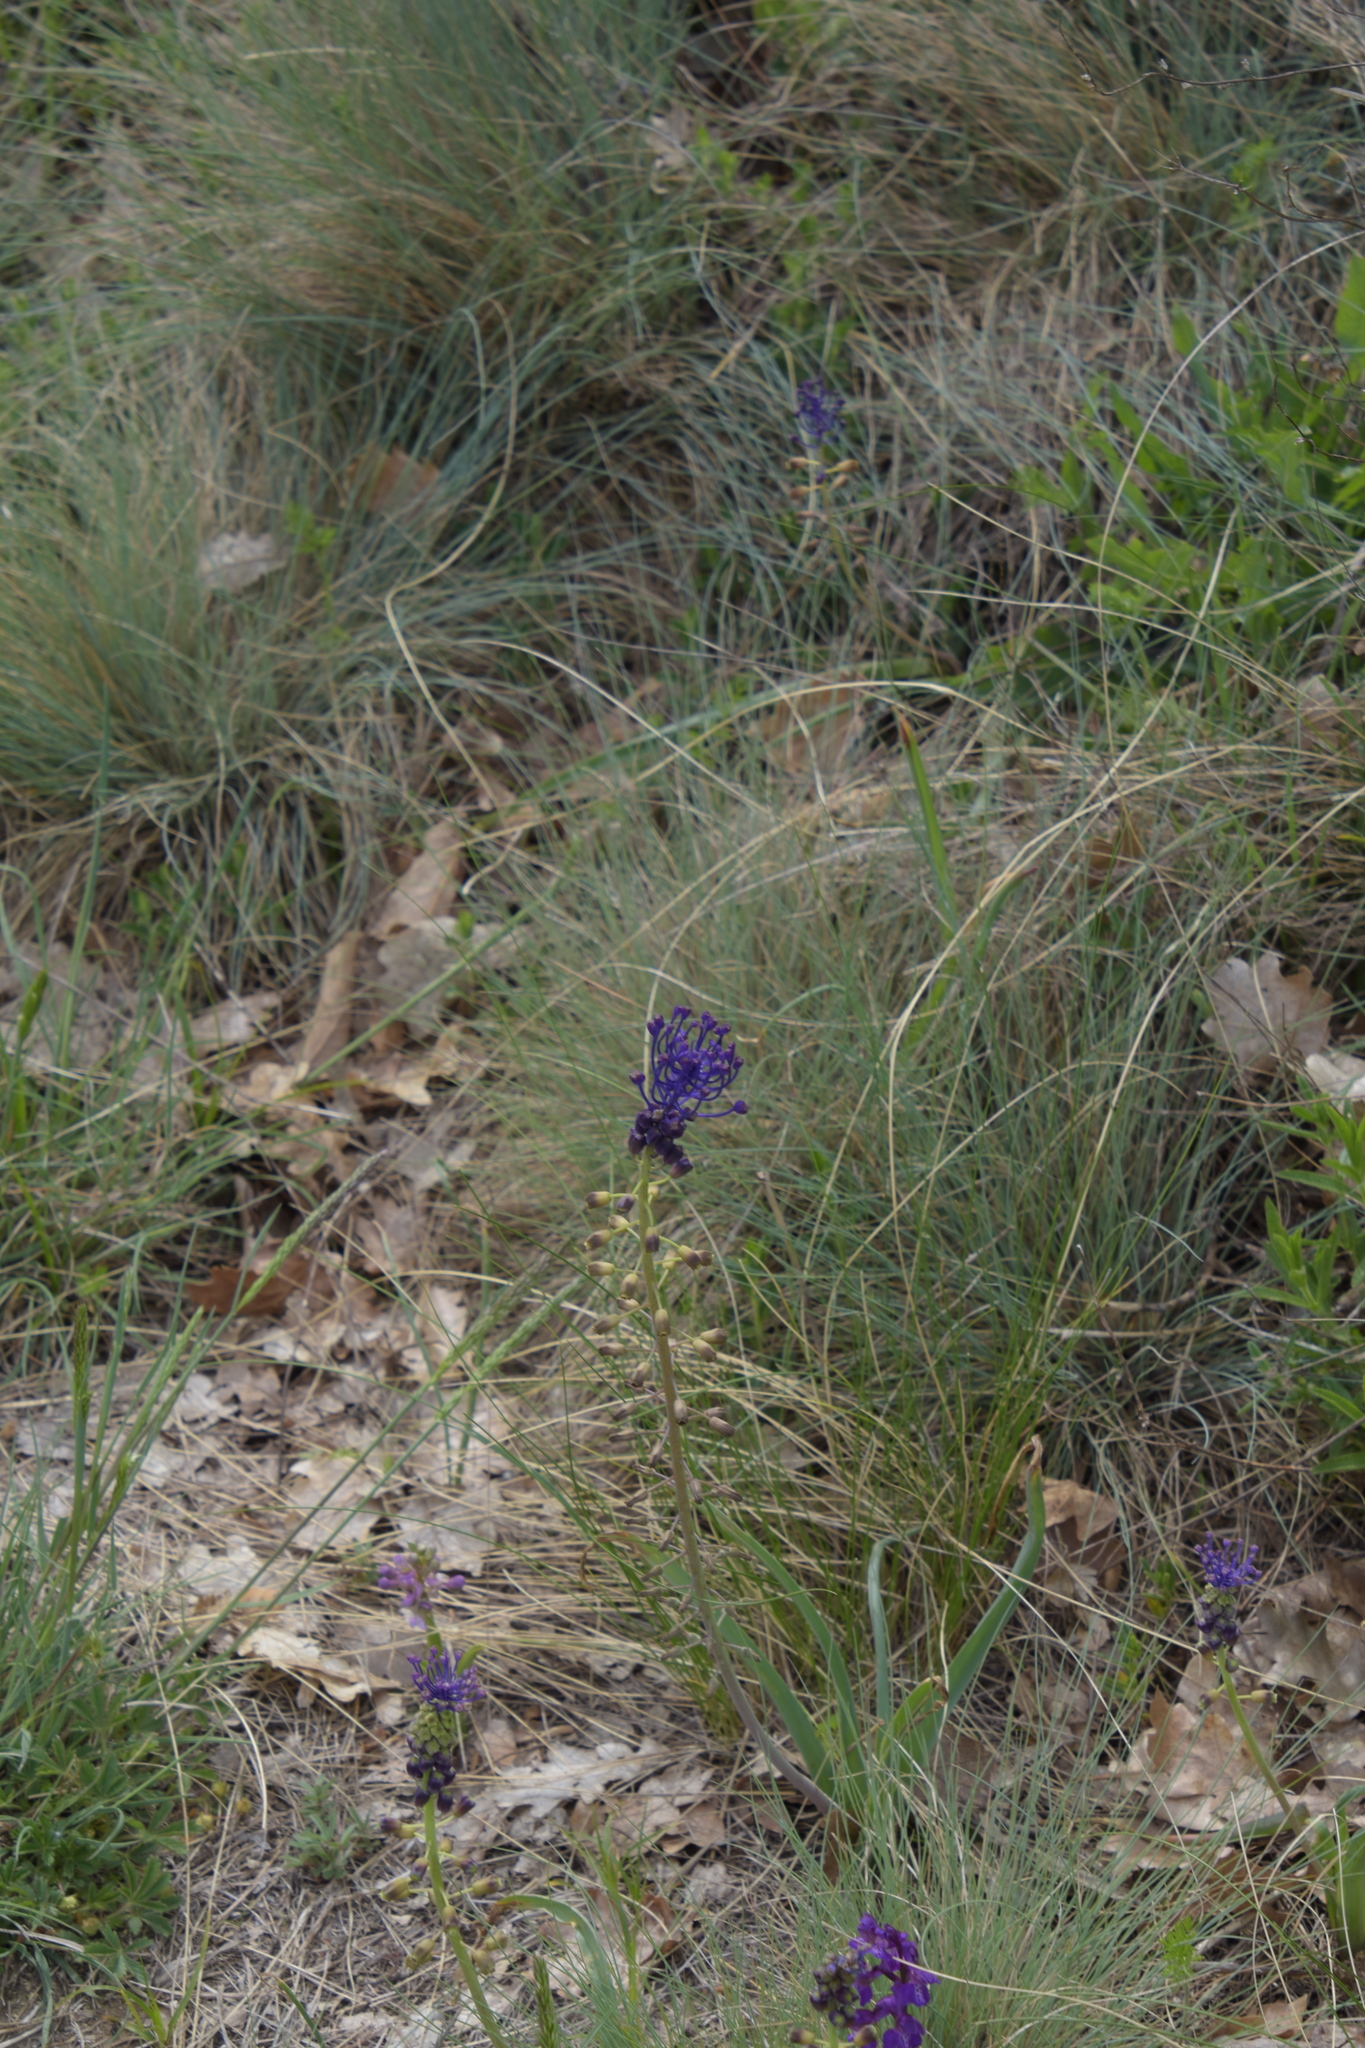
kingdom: Plantae
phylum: Tracheophyta
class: Liliopsida
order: Asparagales
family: Asparagaceae
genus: Muscari
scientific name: Muscari comosum
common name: Tassel hyacinth
